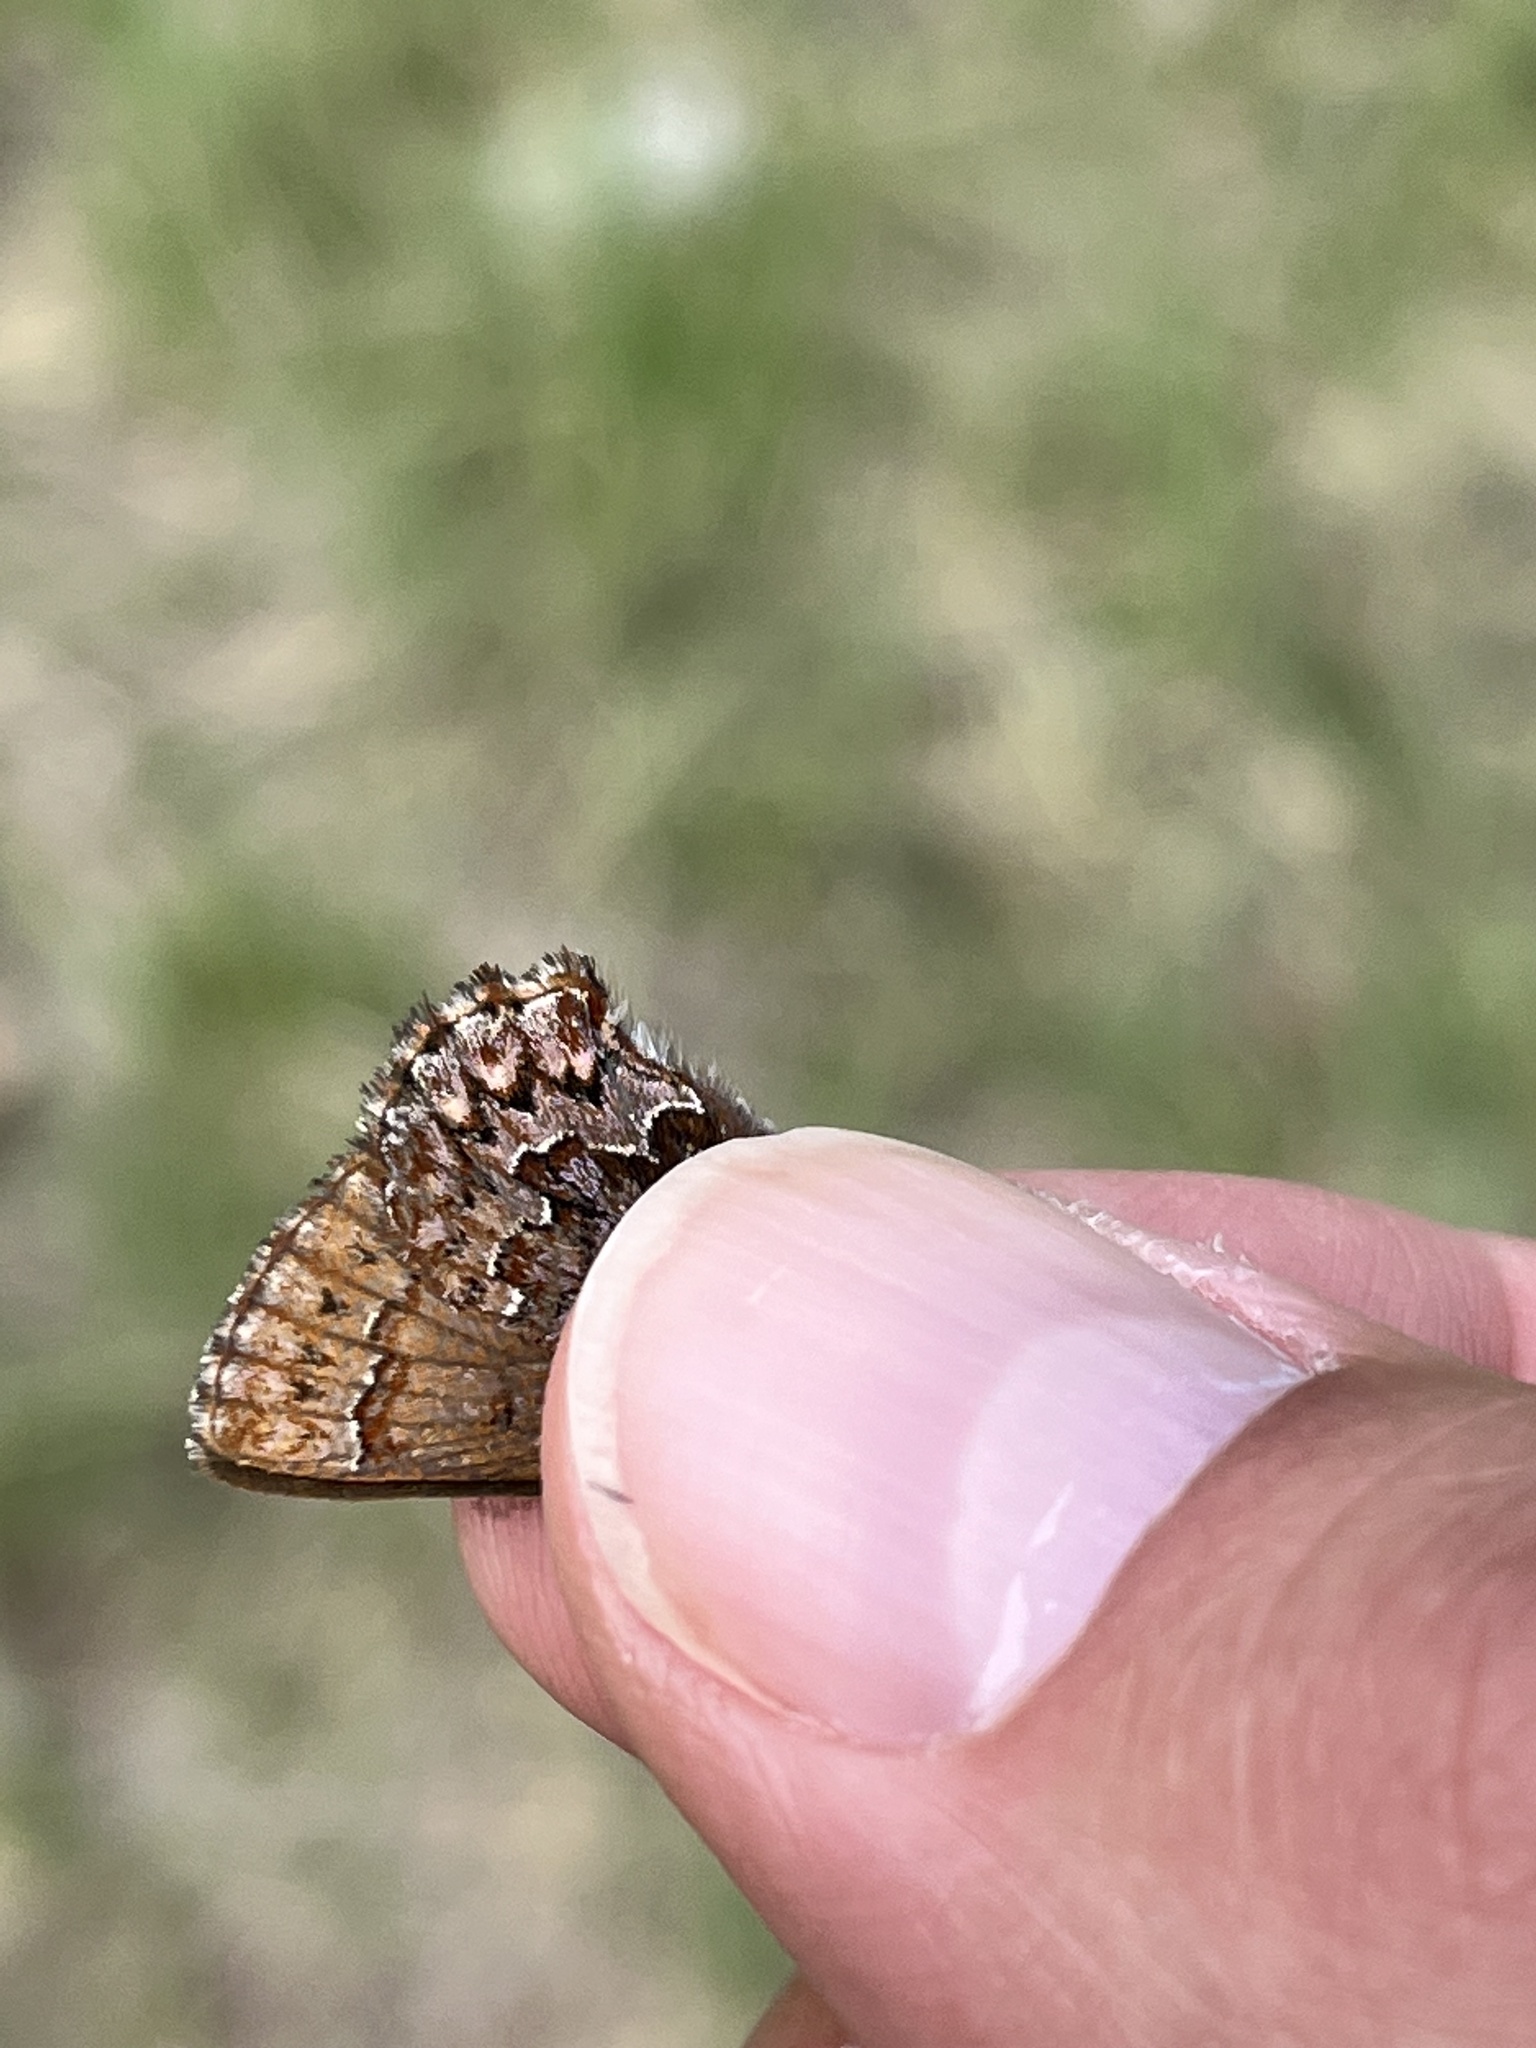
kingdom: Animalia
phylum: Arthropoda
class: Insecta
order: Lepidoptera
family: Lycaenidae
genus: Incisalia
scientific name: Incisalia eryphon
